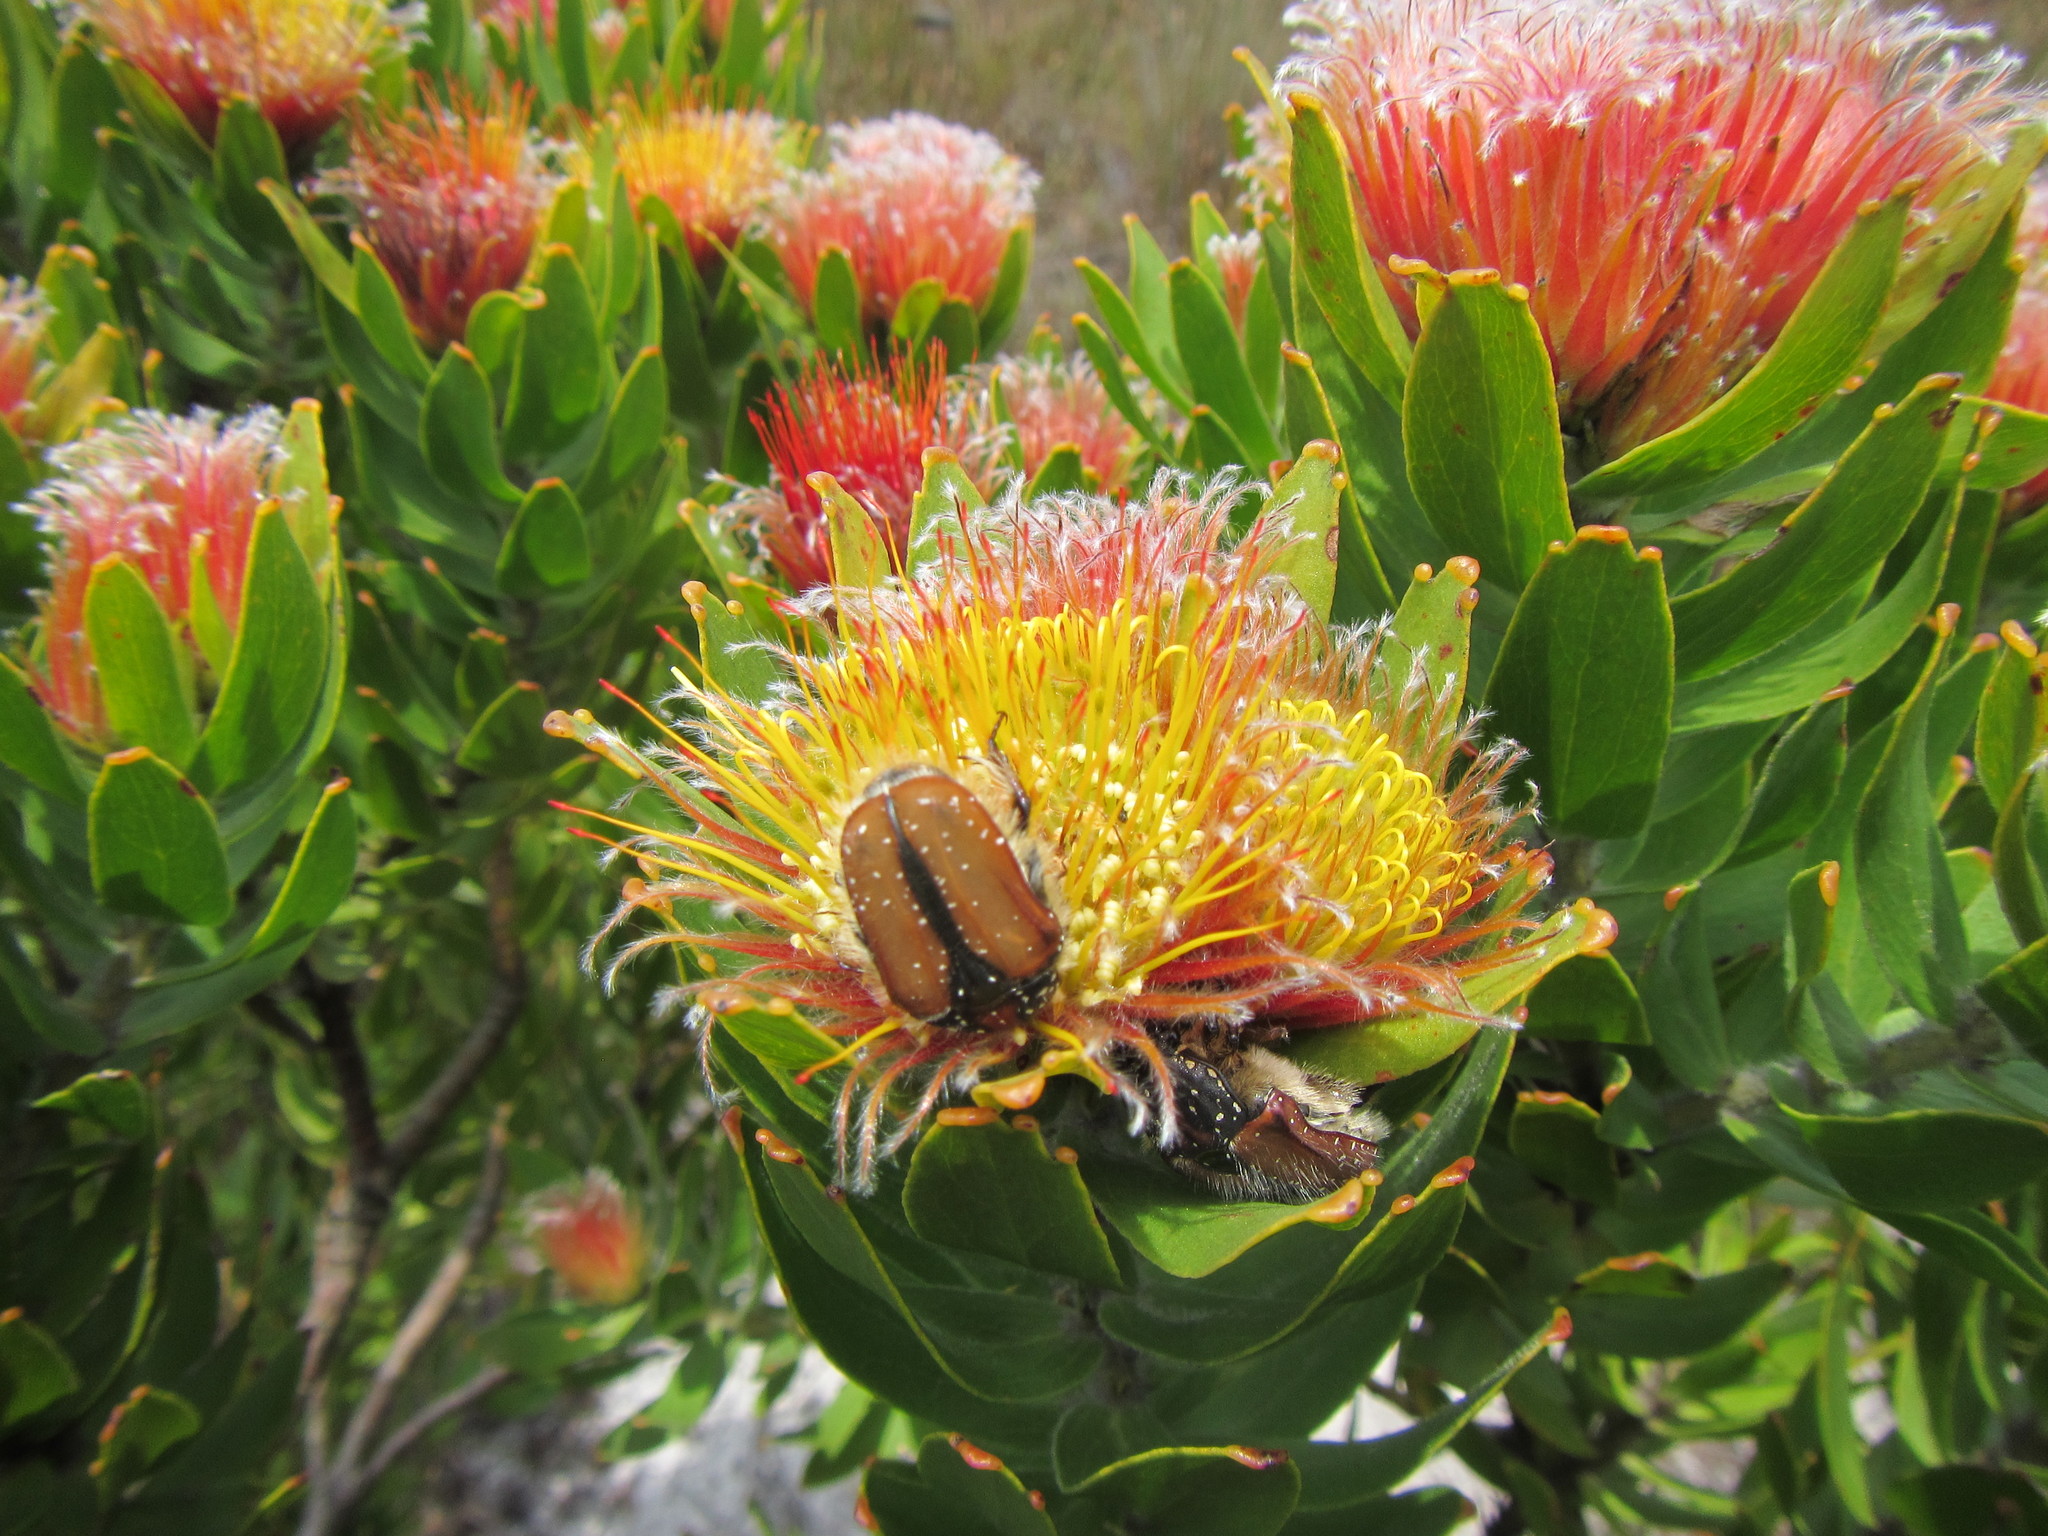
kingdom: Plantae
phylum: Tracheophyta
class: Magnoliopsida
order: Proteales
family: Proteaceae
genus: Leucospermum
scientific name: Leucospermum oleifolium
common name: Matches
